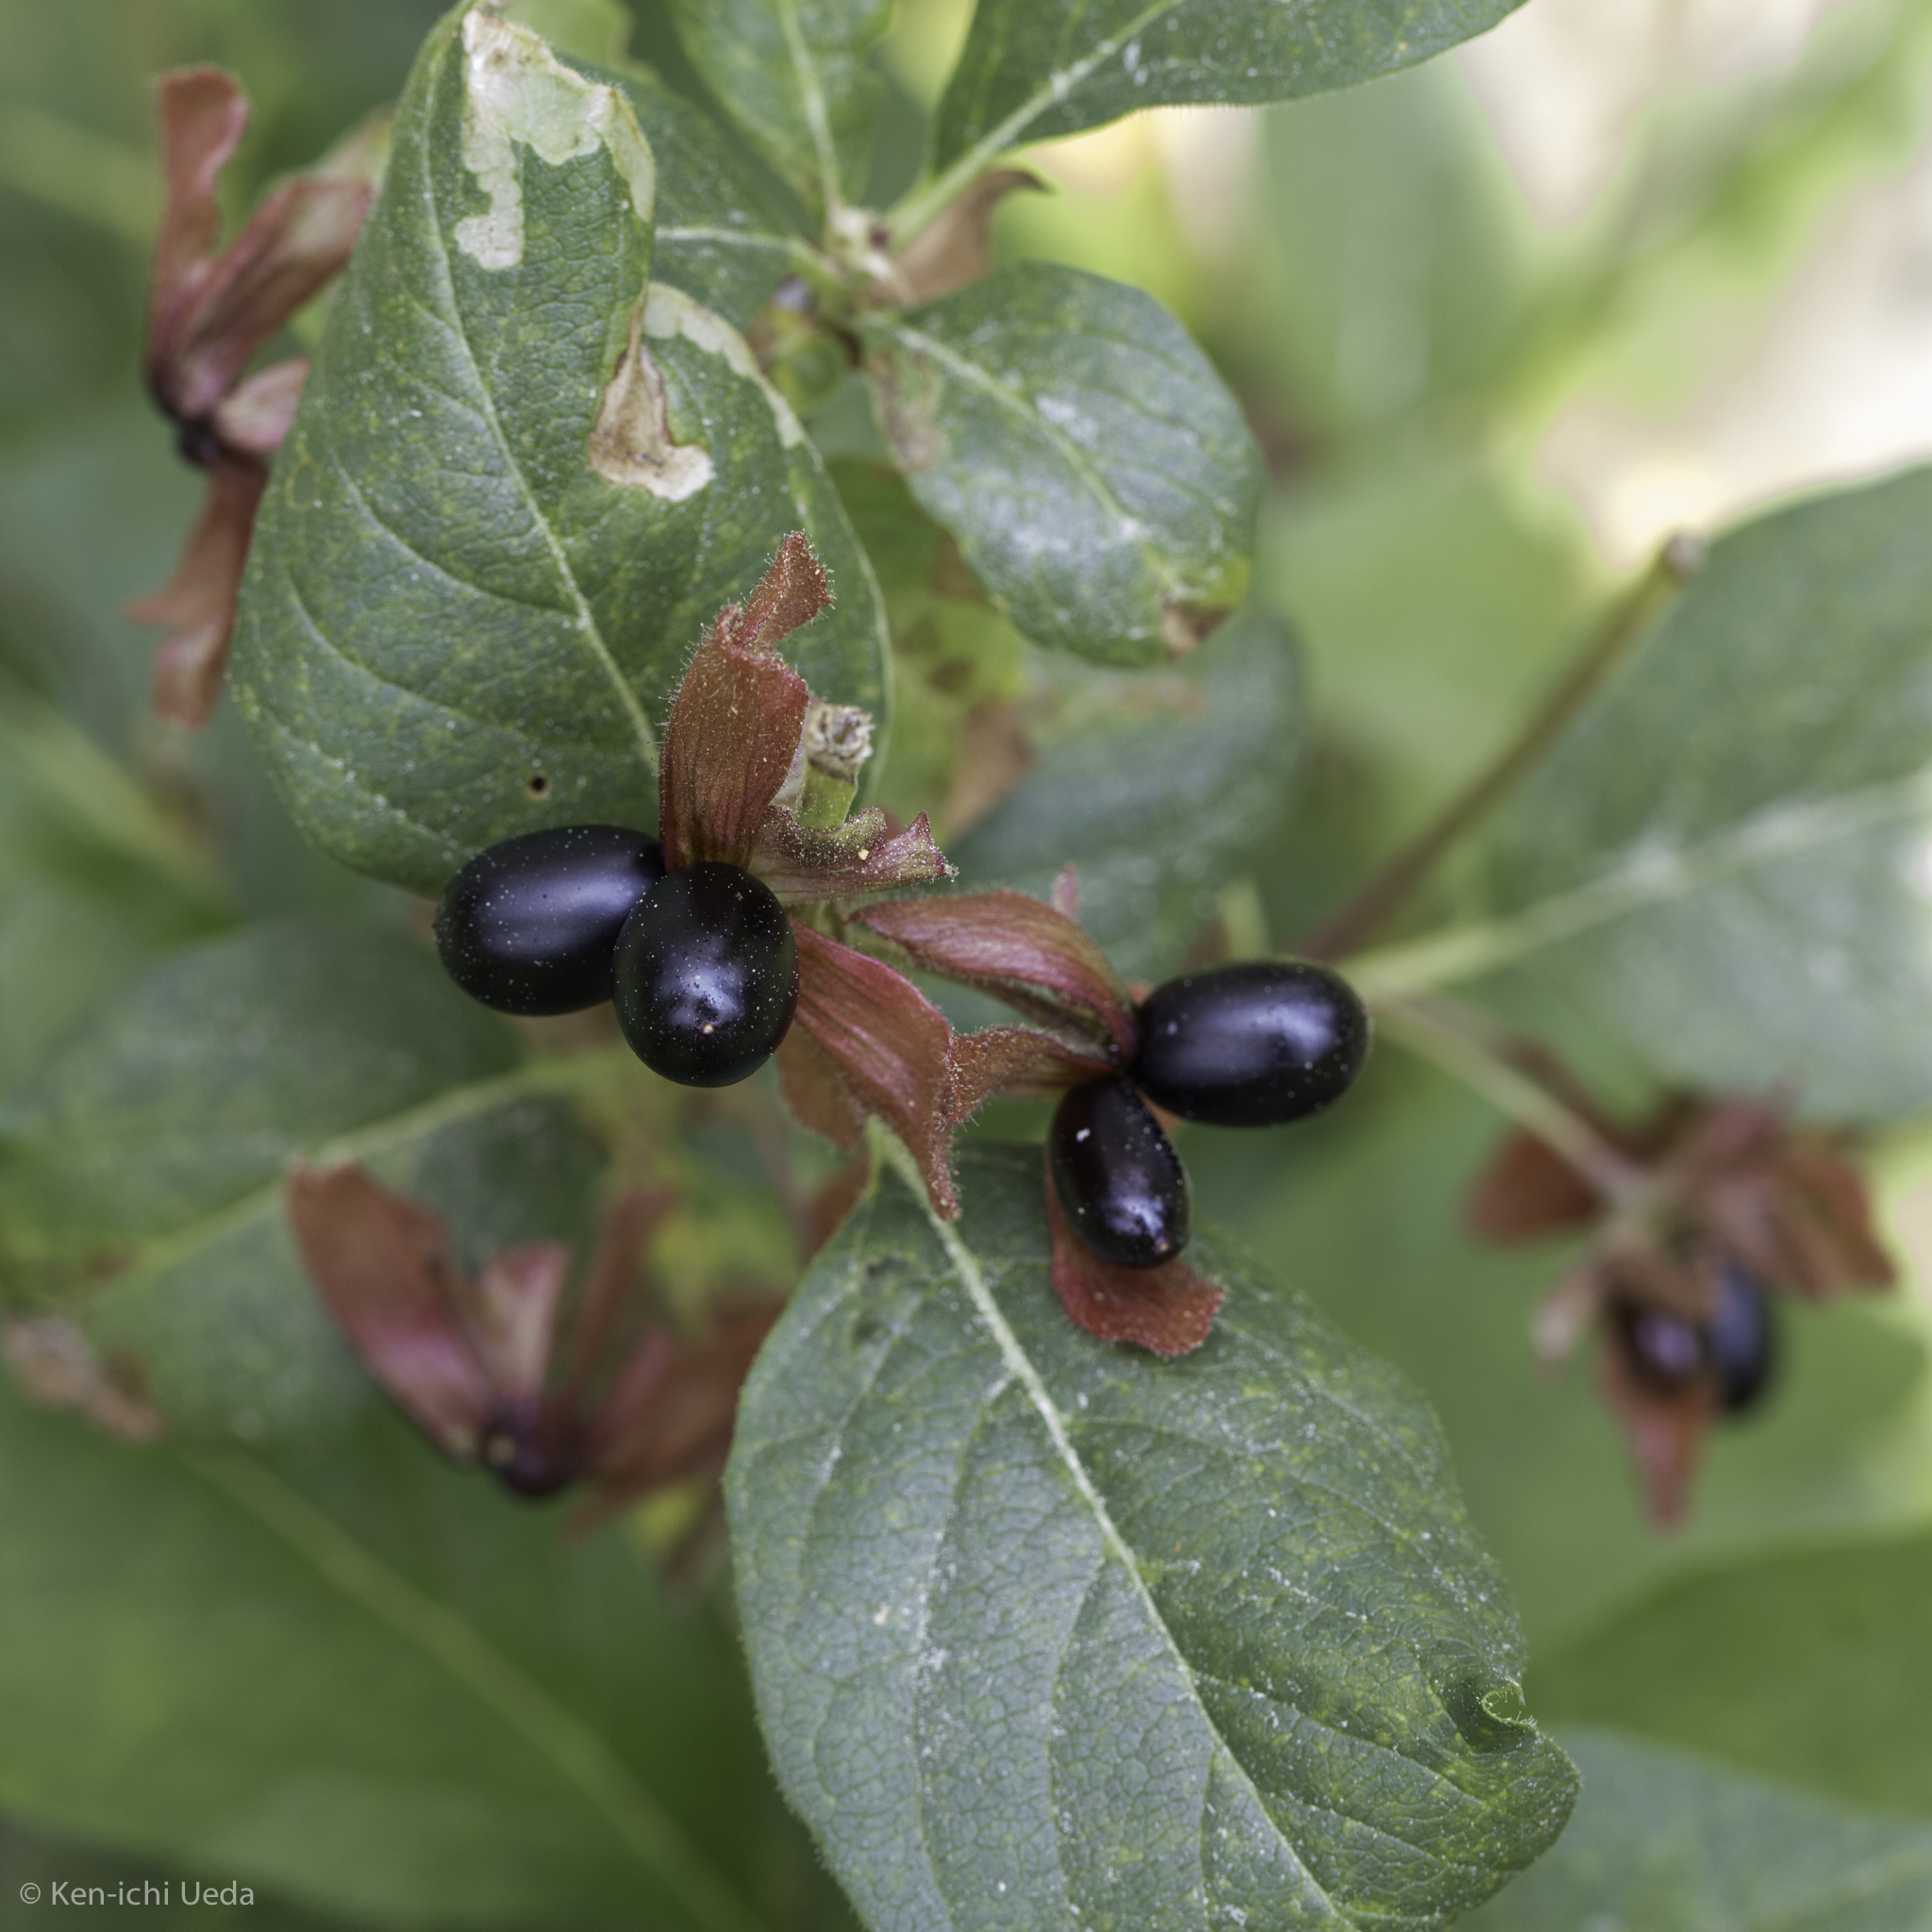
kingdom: Plantae
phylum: Tracheophyta
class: Magnoliopsida
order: Dipsacales
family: Caprifoliaceae
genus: Lonicera
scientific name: Lonicera involucrata
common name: Californian honeysuckle
